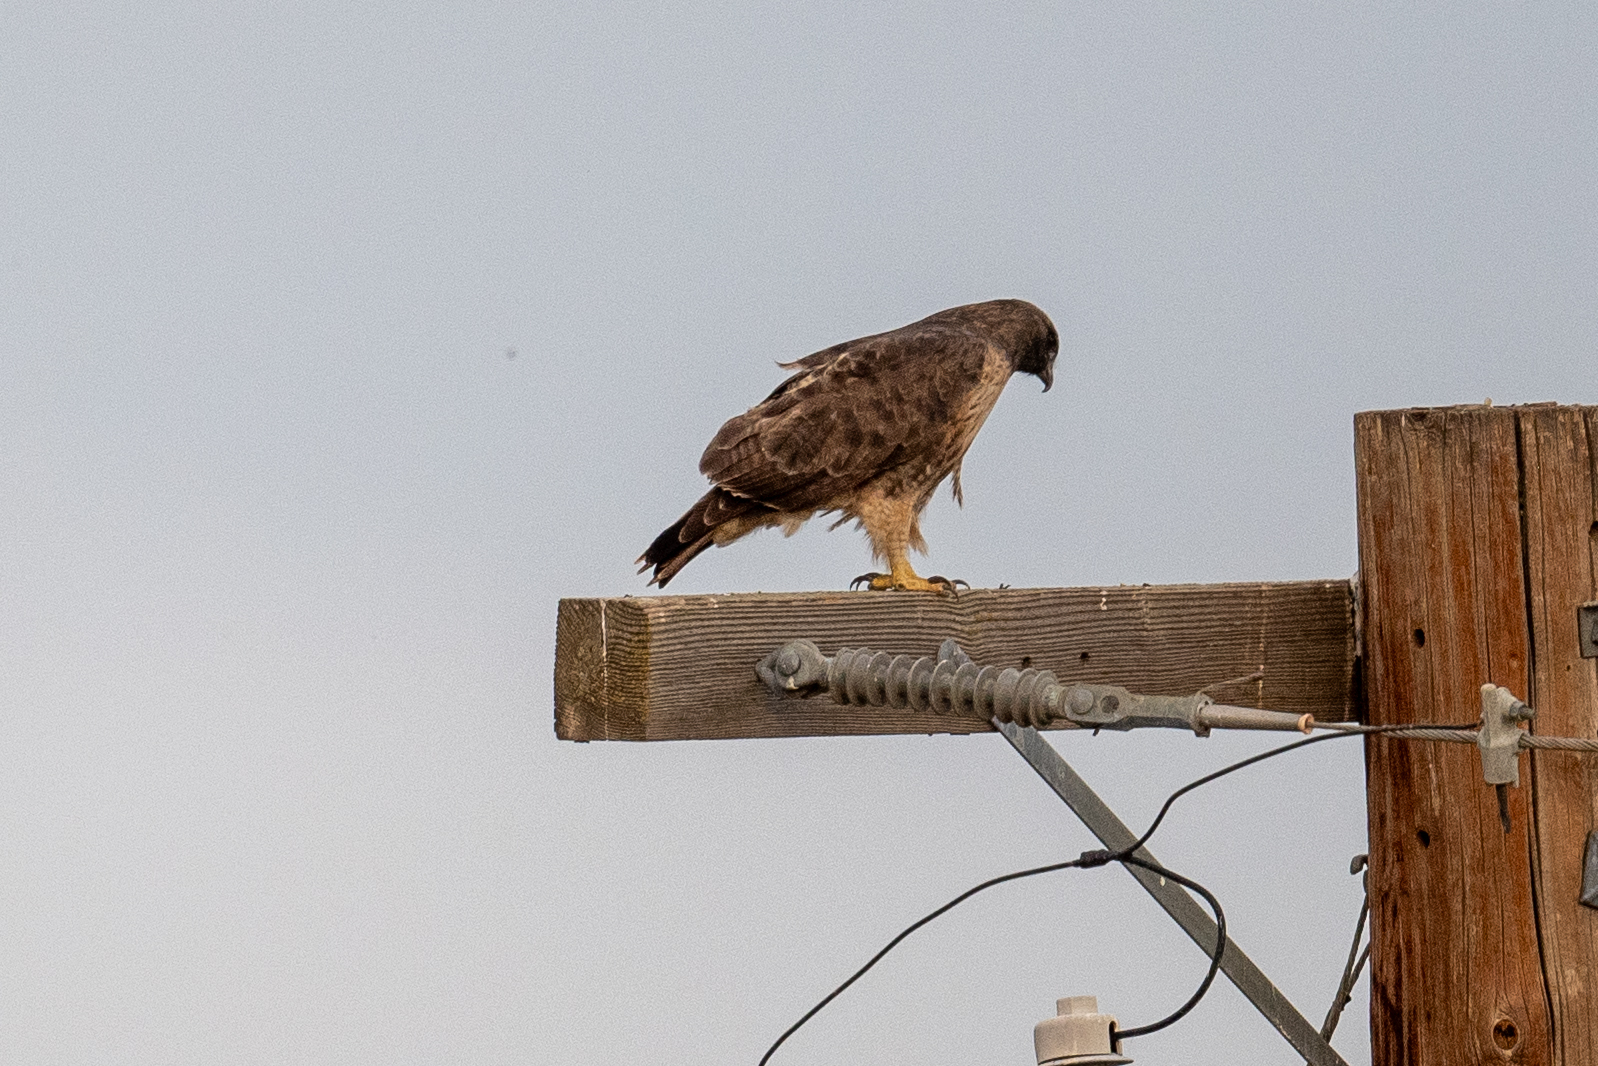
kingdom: Animalia
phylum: Chordata
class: Aves
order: Accipitriformes
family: Accipitridae
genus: Buteo
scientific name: Buteo jamaicensis
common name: Red-tailed hawk
